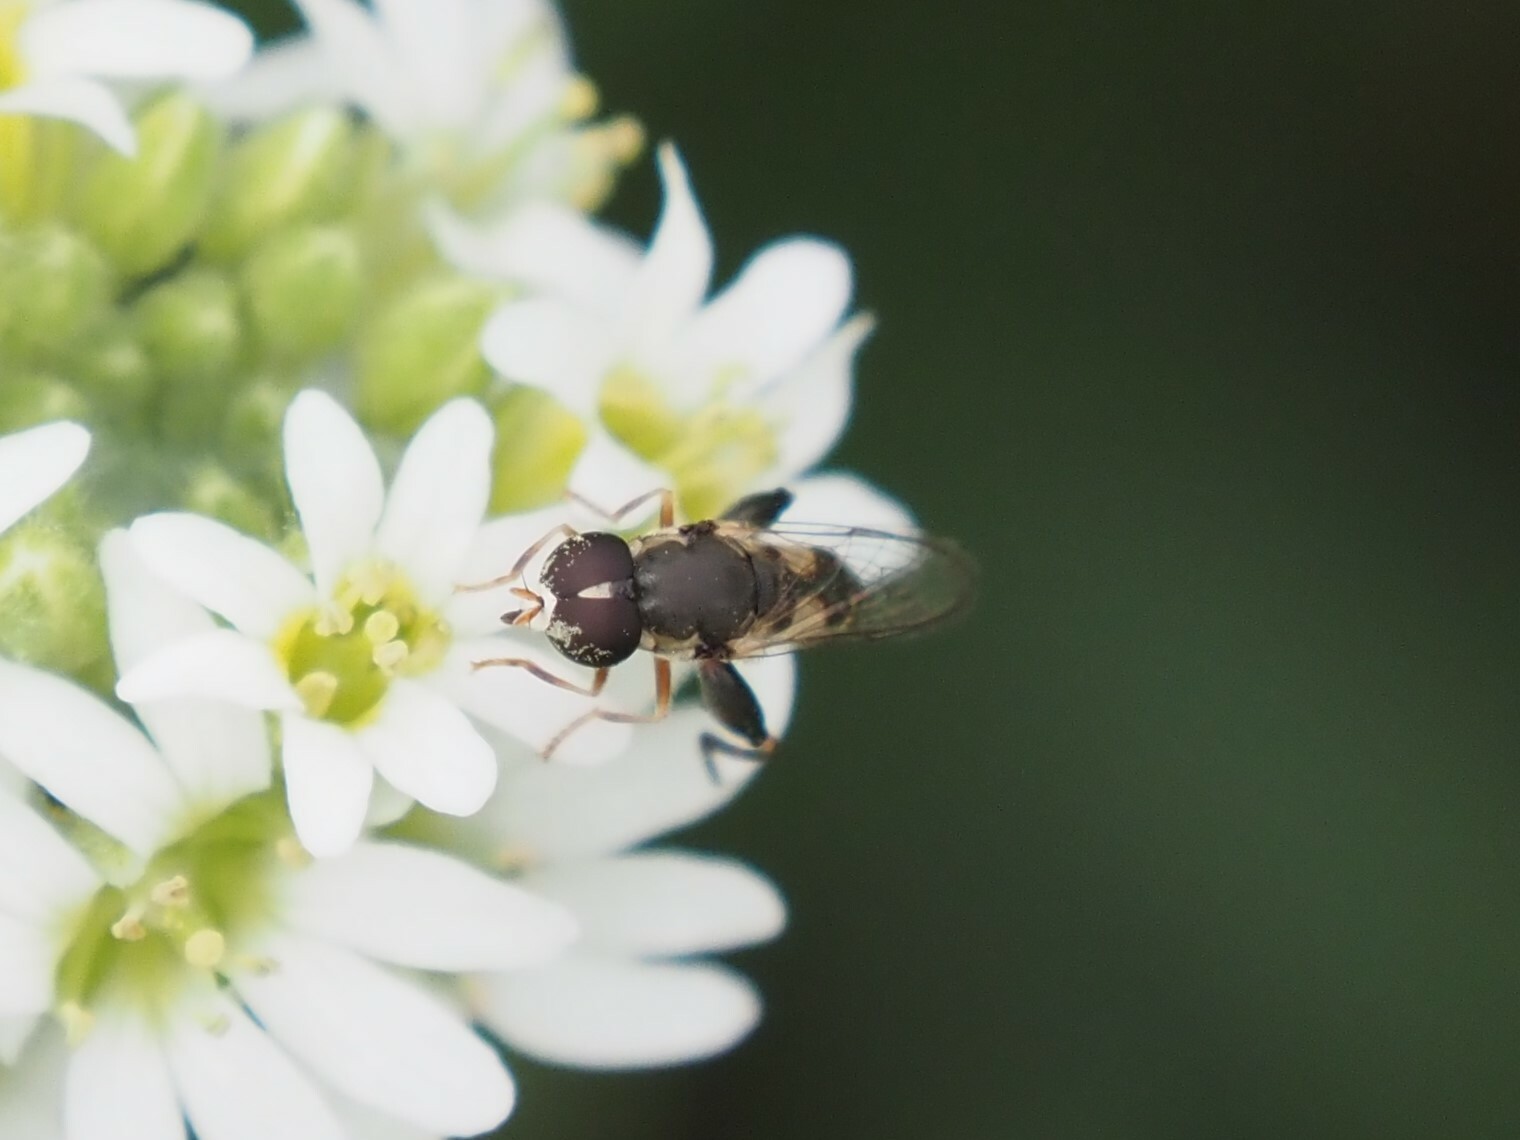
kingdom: Animalia
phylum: Arthropoda
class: Insecta
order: Diptera
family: Syrphidae
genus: Syritta
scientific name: Syritta pipiens
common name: Hover fly
